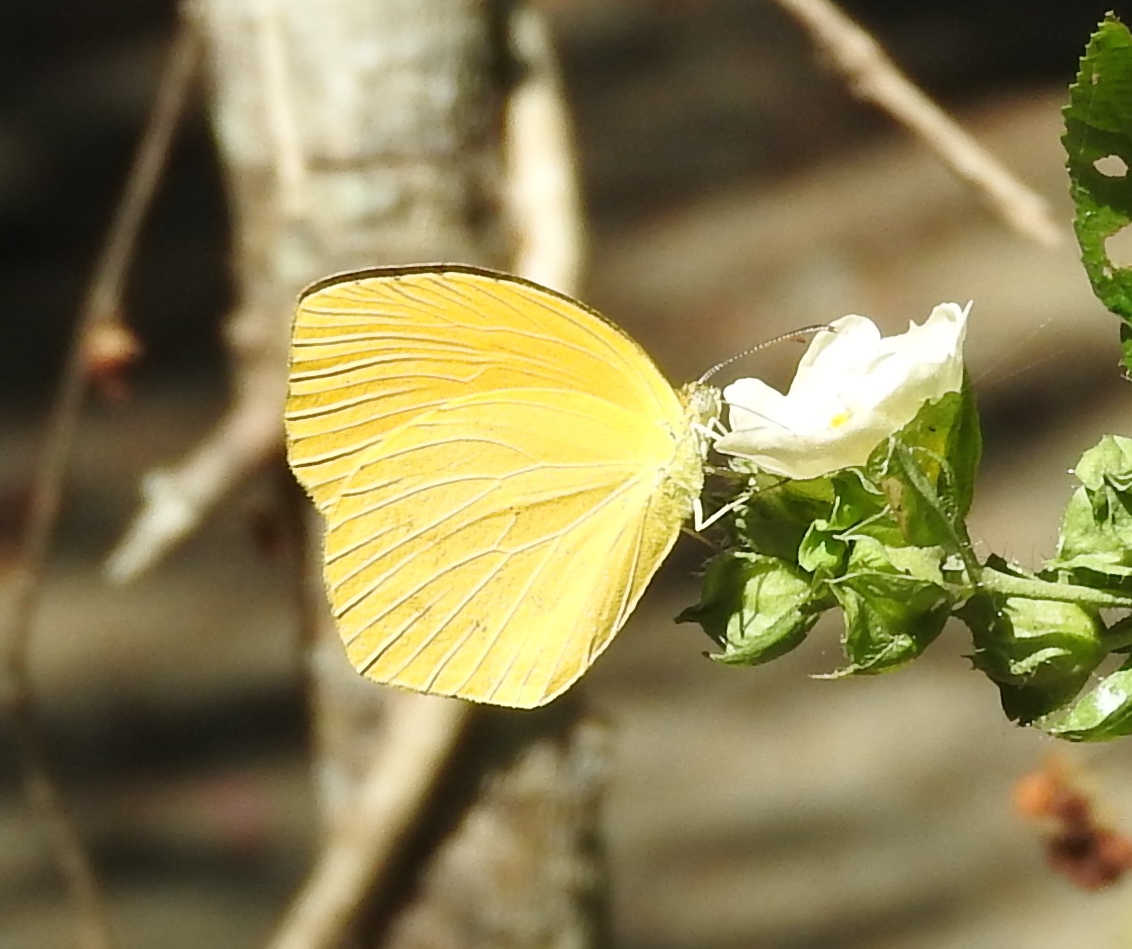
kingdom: Animalia
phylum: Arthropoda
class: Insecta
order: Lepidoptera
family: Pieridae
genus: Pyrisitia
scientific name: Pyrisitia proterpia
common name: Tailed orange
